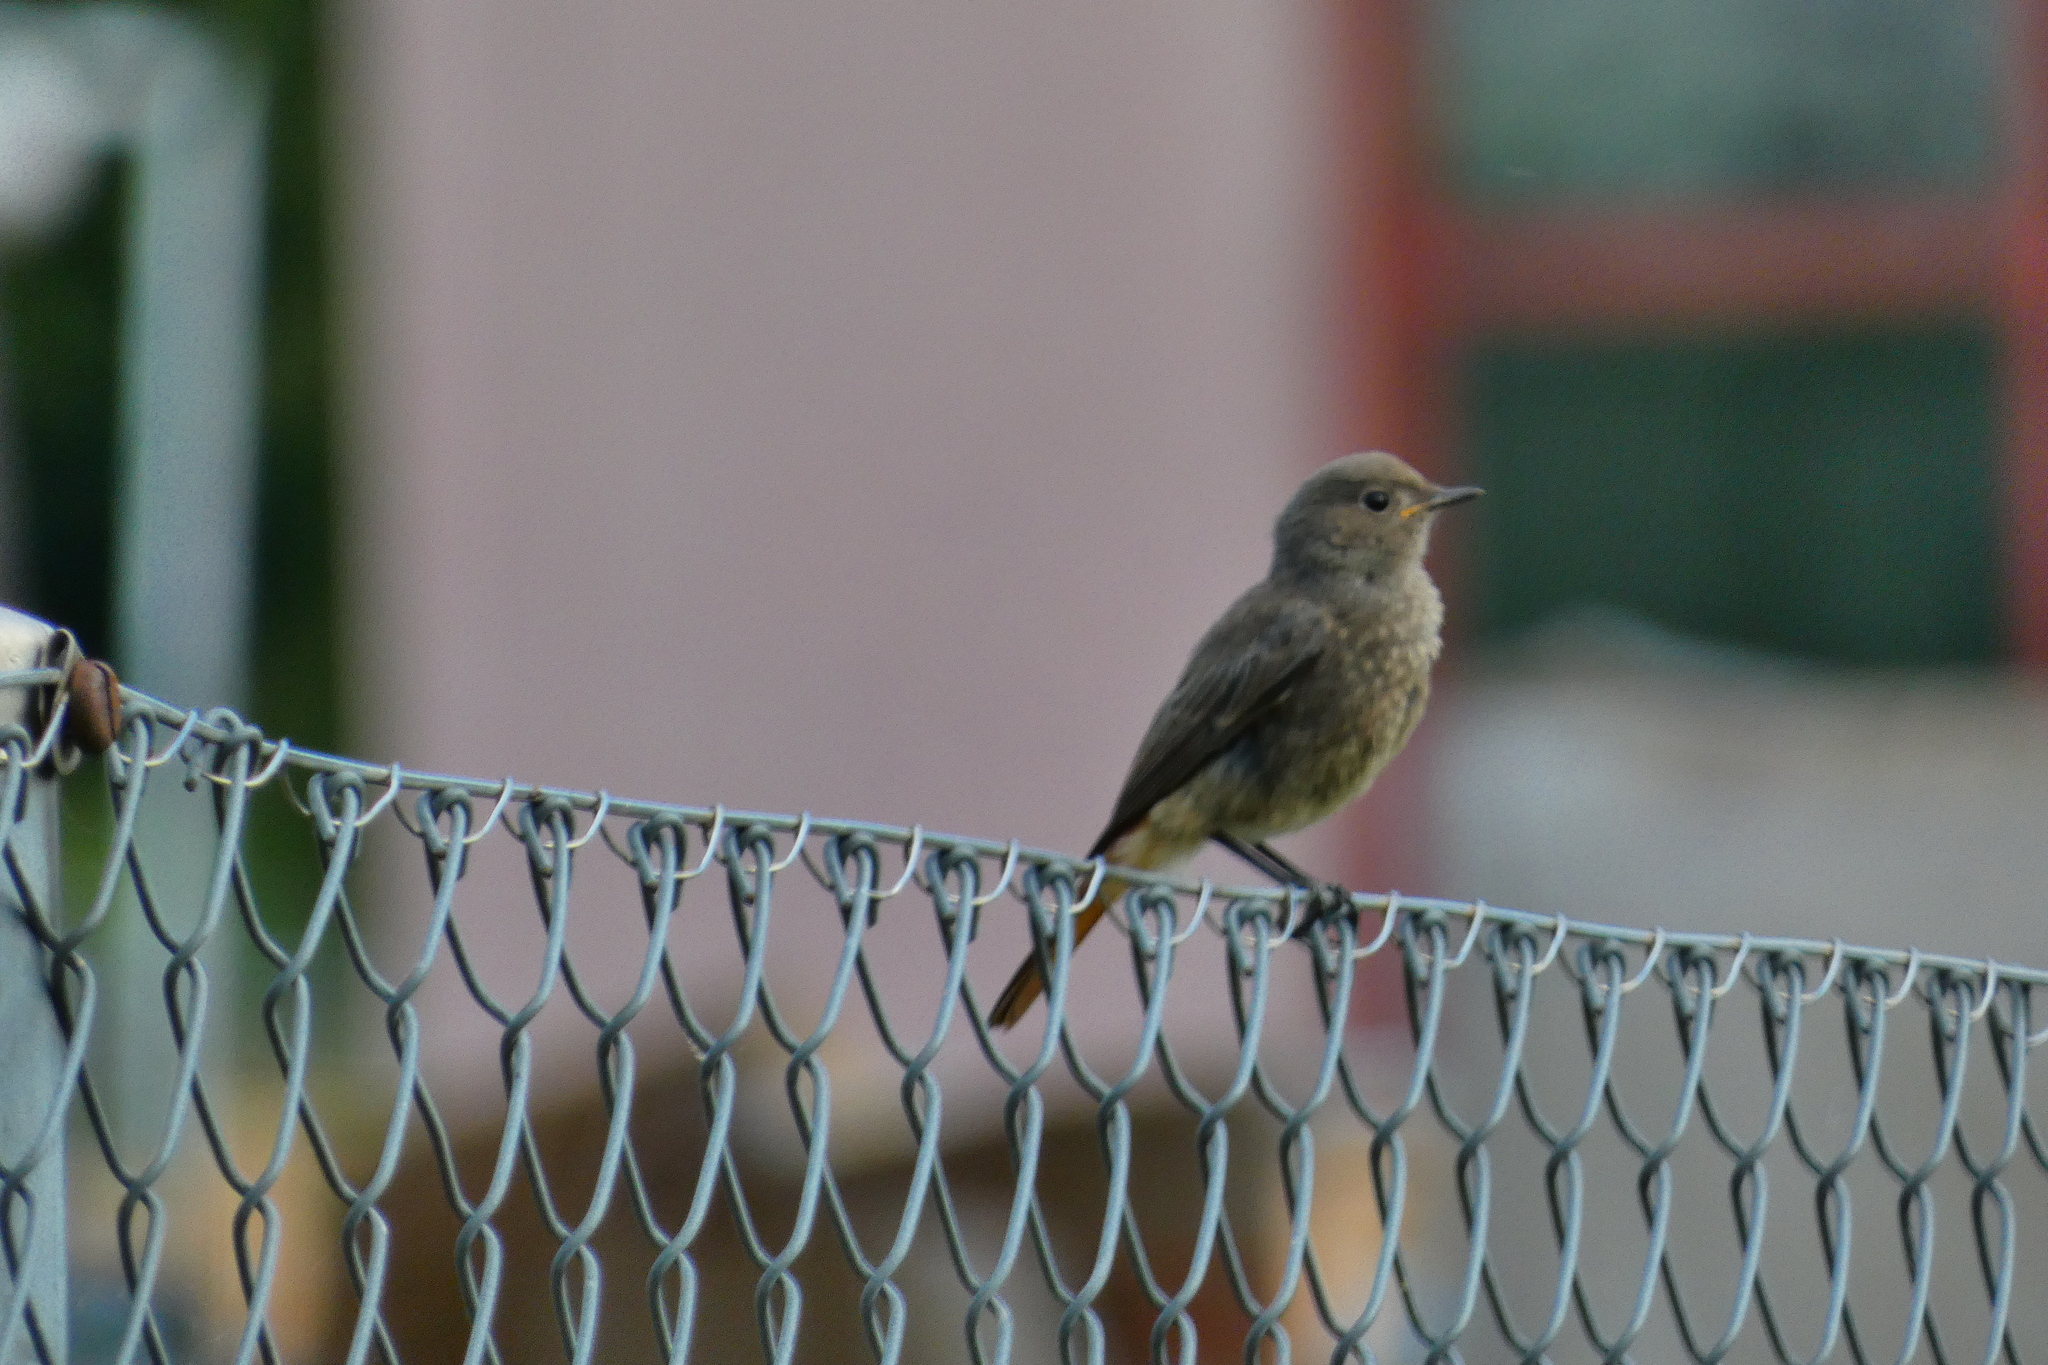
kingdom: Animalia
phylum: Chordata
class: Aves
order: Passeriformes
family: Muscicapidae
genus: Phoenicurus
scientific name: Phoenicurus ochruros
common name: Black redstart
